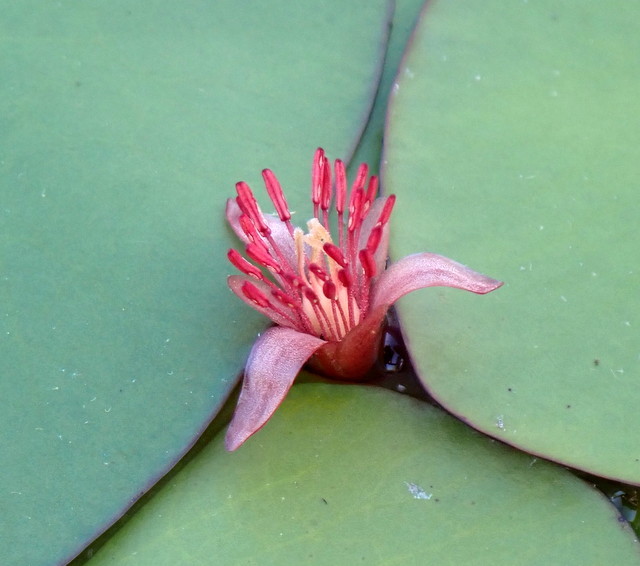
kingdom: Plantae
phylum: Tracheophyta
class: Magnoliopsida
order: Nymphaeales
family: Cabombaceae
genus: Brasenia
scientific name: Brasenia schreberi
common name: Water-shield
